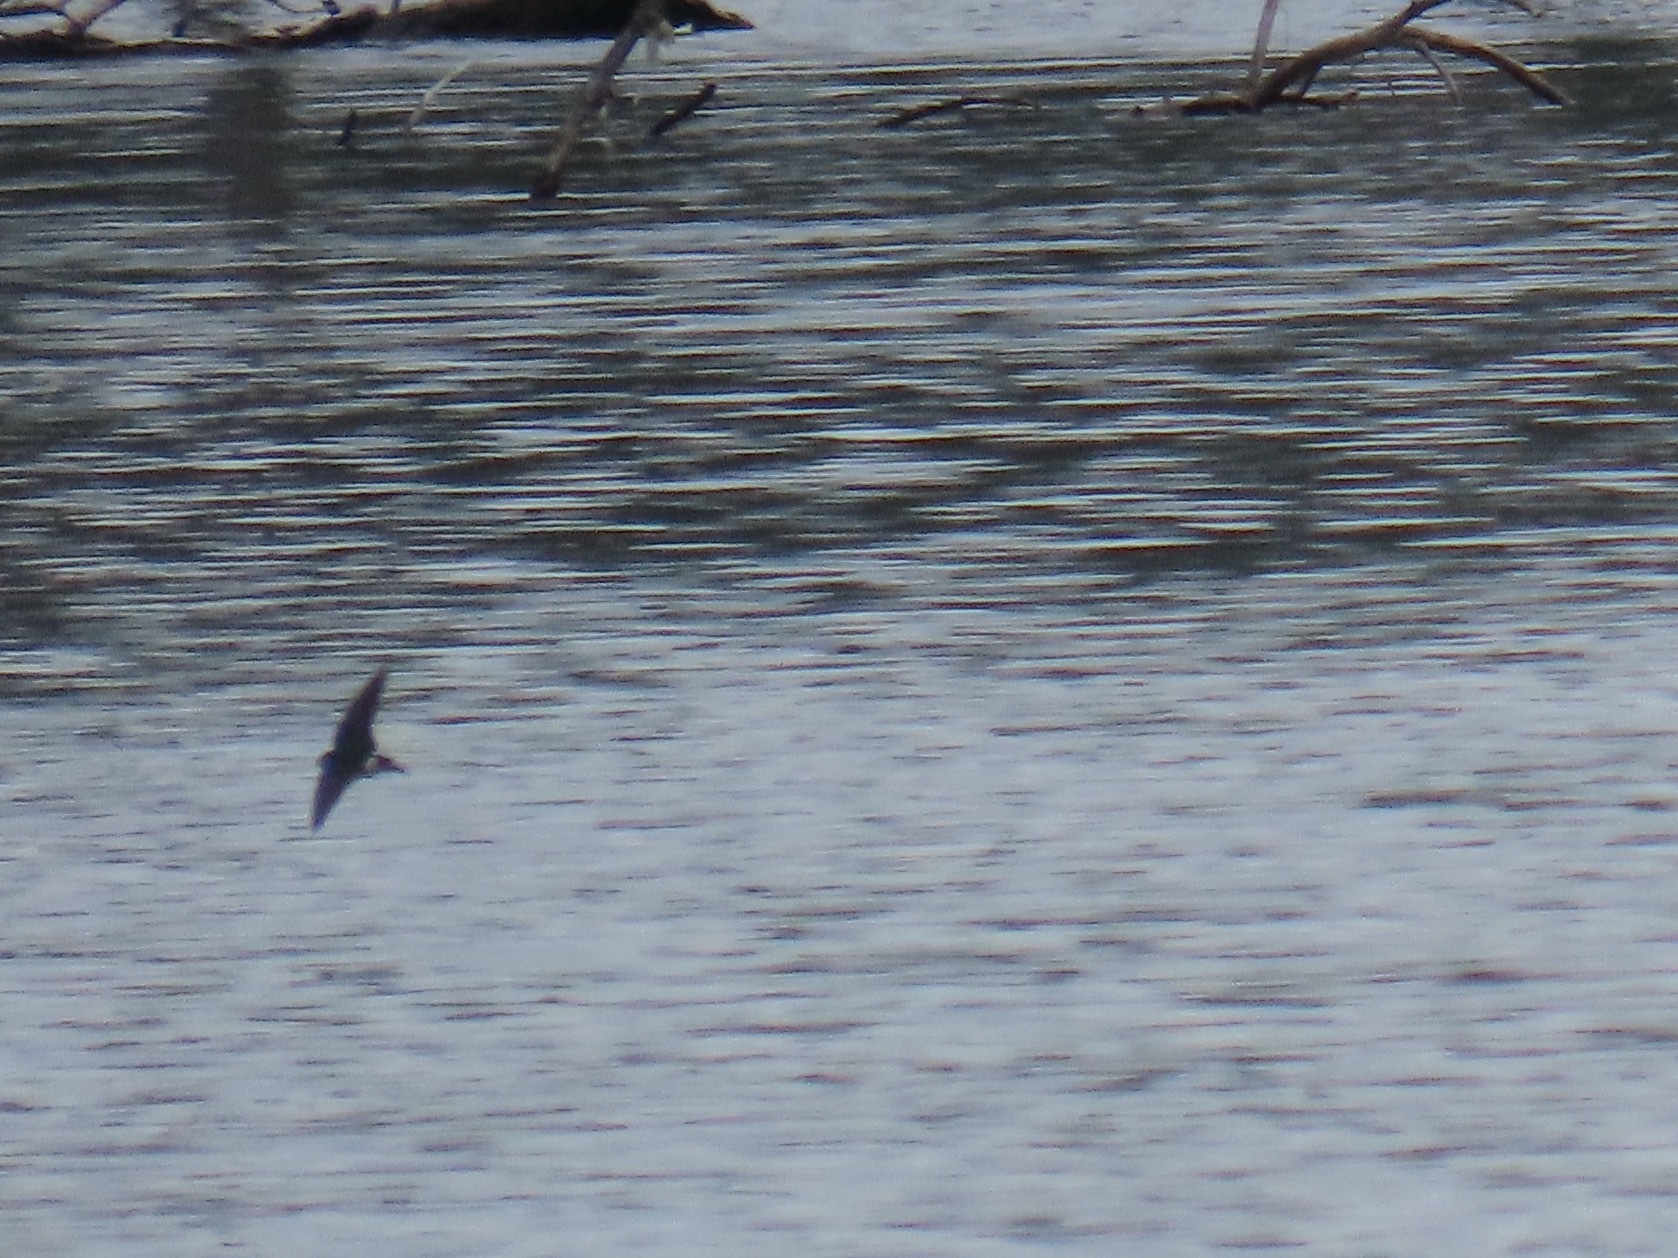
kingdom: Animalia
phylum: Chordata
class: Aves
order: Passeriformes
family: Hirundinidae
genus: Tachycineta
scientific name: Tachycineta thalassina
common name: Violet-green swallow
